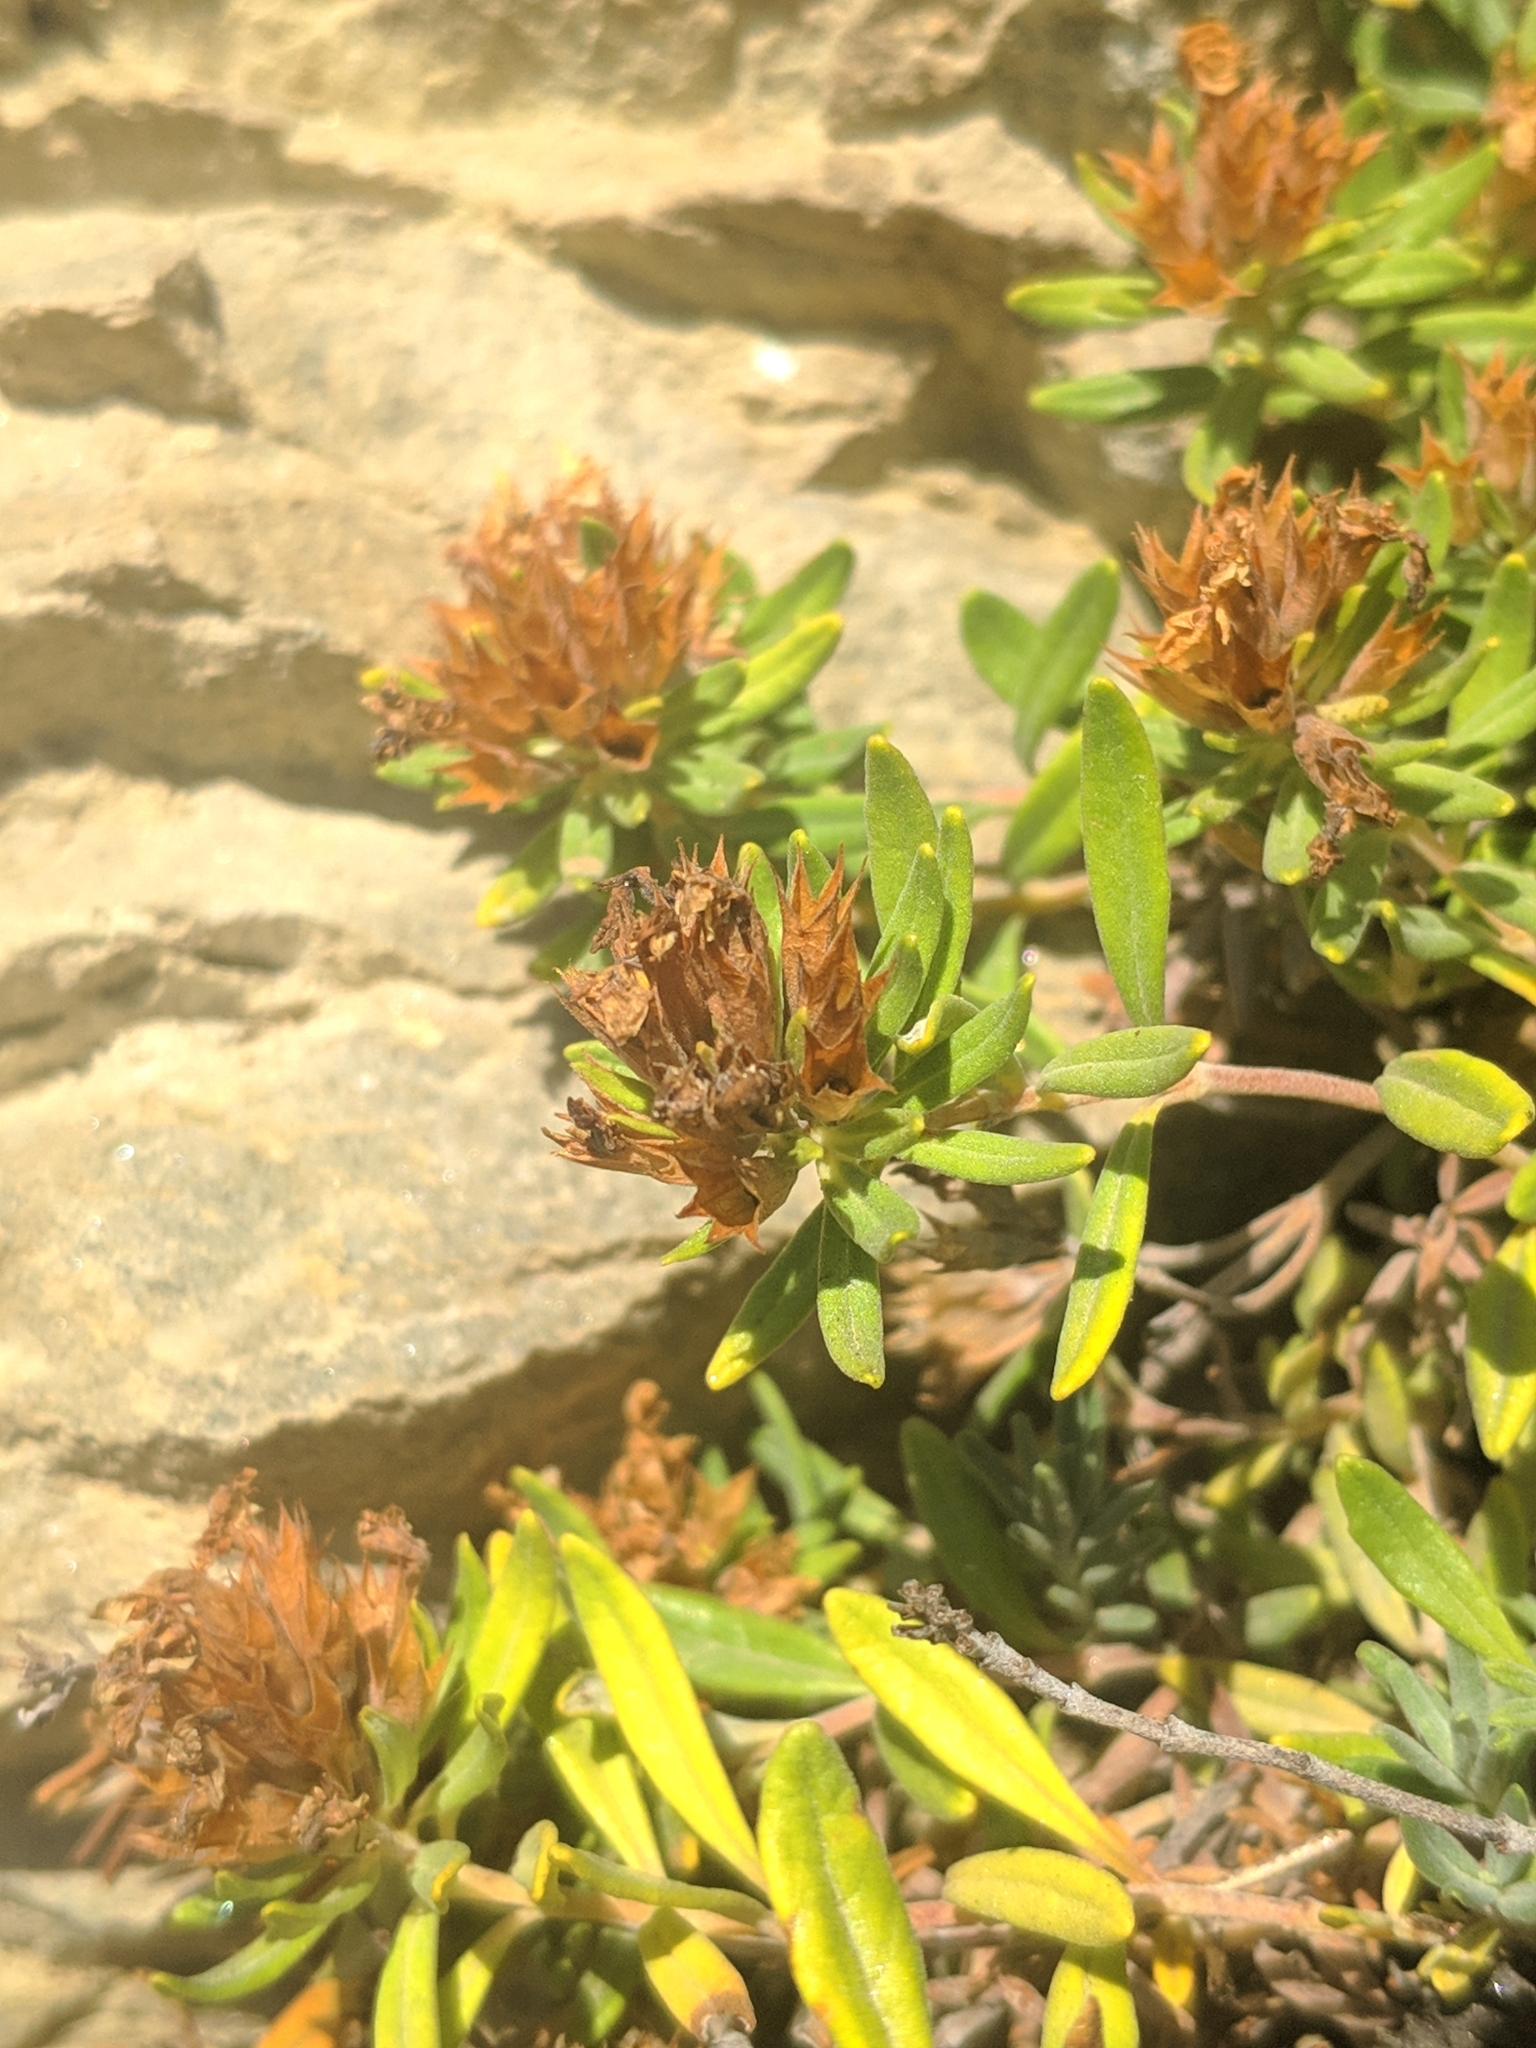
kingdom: Plantae
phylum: Tracheophyta
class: Magnoliopsida
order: Lamiales
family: Lamiaceae
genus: Teucrium
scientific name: Teucrium montanum
